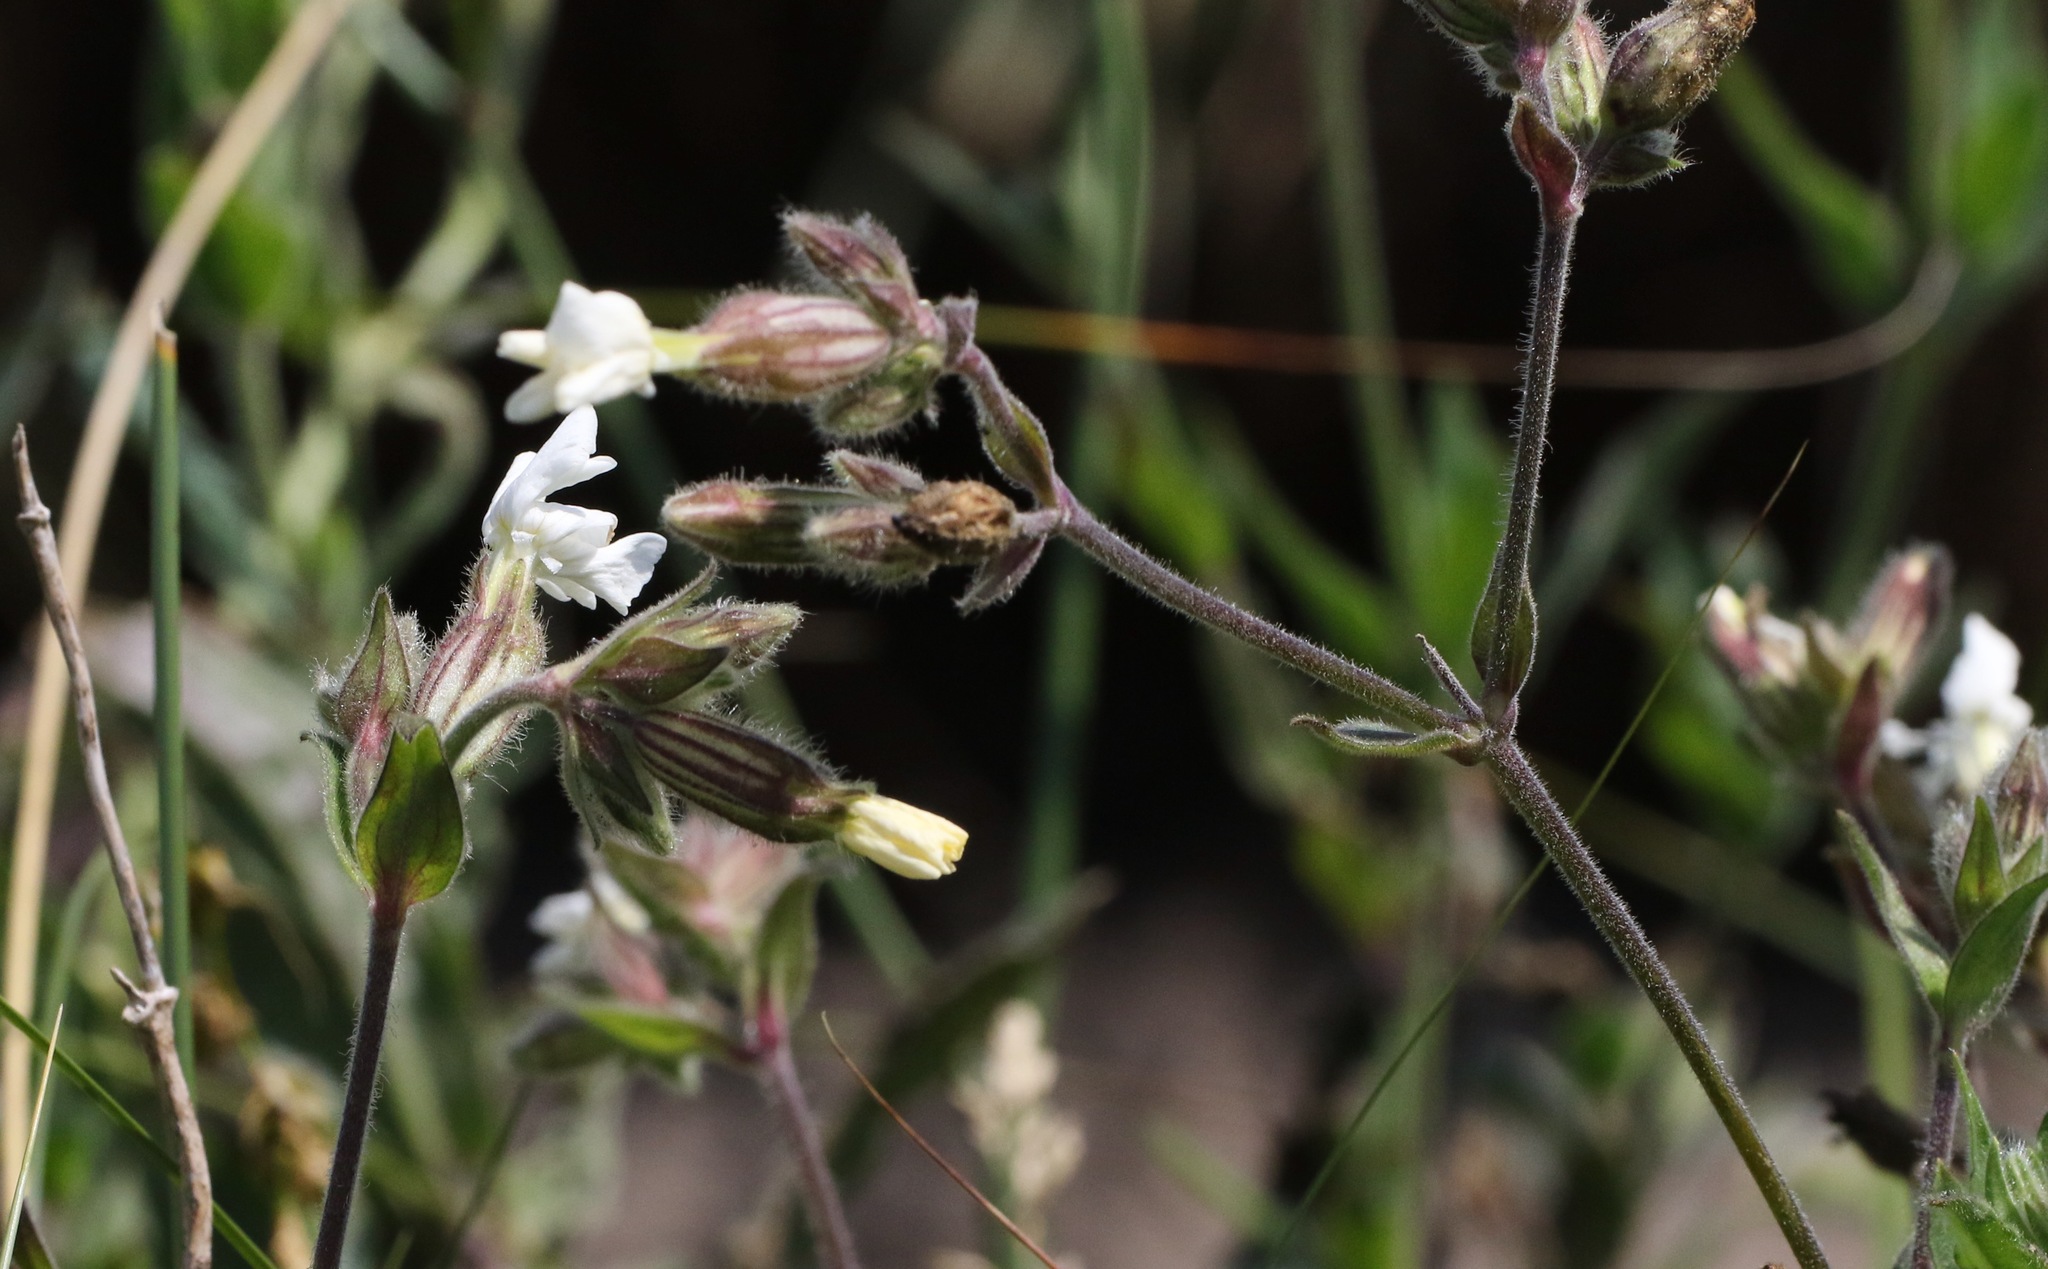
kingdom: Plantae
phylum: Tracheophyta
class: Magnoliopsida
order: Caryophyllales
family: Caryophyllaceae
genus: Silene
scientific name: Silene latifolia
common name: White campion
